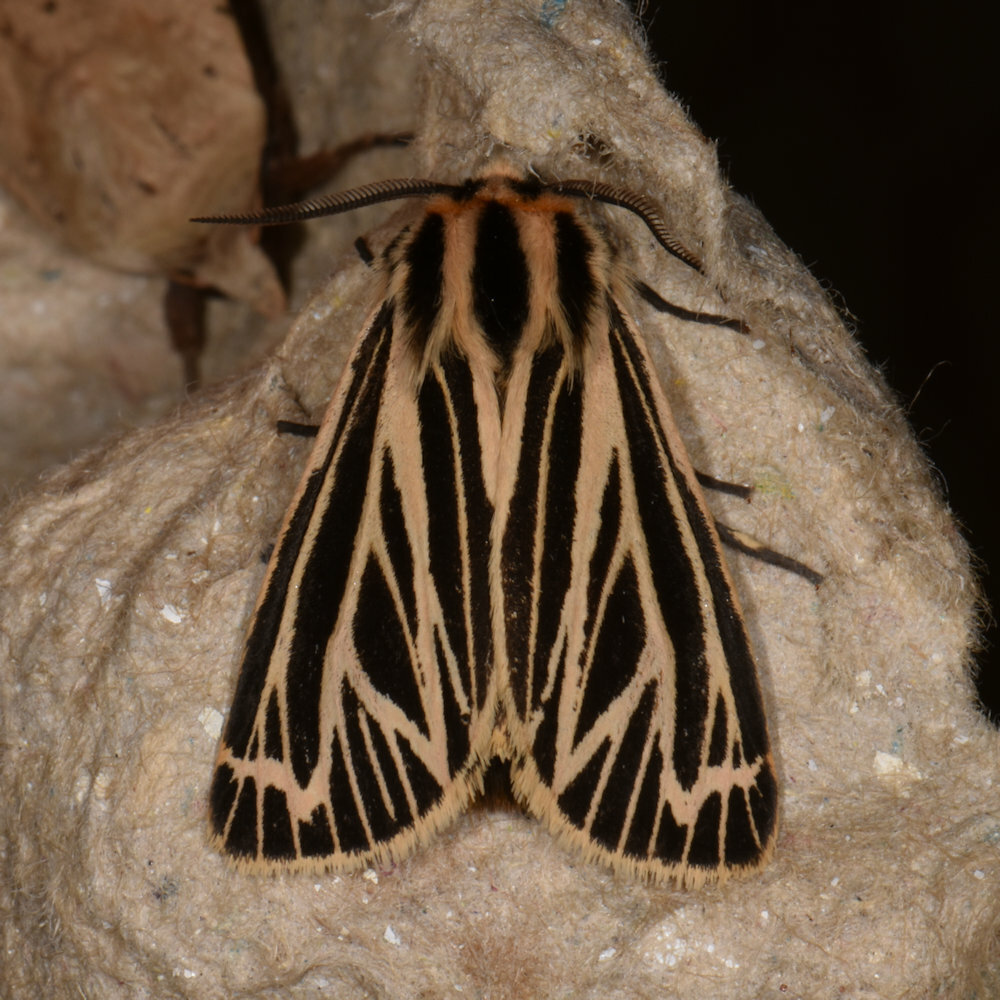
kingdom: Animalia
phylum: Arthropoda
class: Insecta
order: Lepidoptera
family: Erebidae
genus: Grammia
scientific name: Grammia virguncula
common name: Little tiger moth
